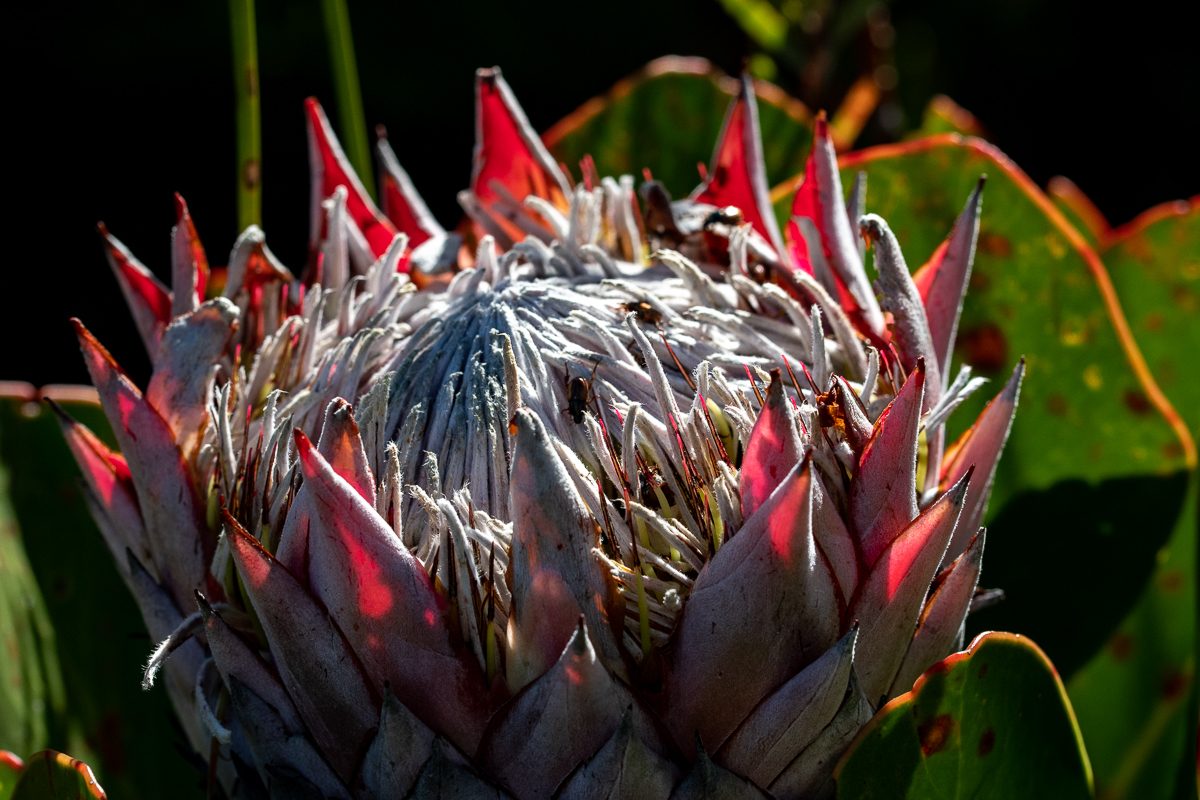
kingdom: Plantae
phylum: Tracheophyta
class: Magnoliopsida
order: Proteales
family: Proteaceae
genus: Protea
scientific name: Protea cynaroides
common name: King protea
